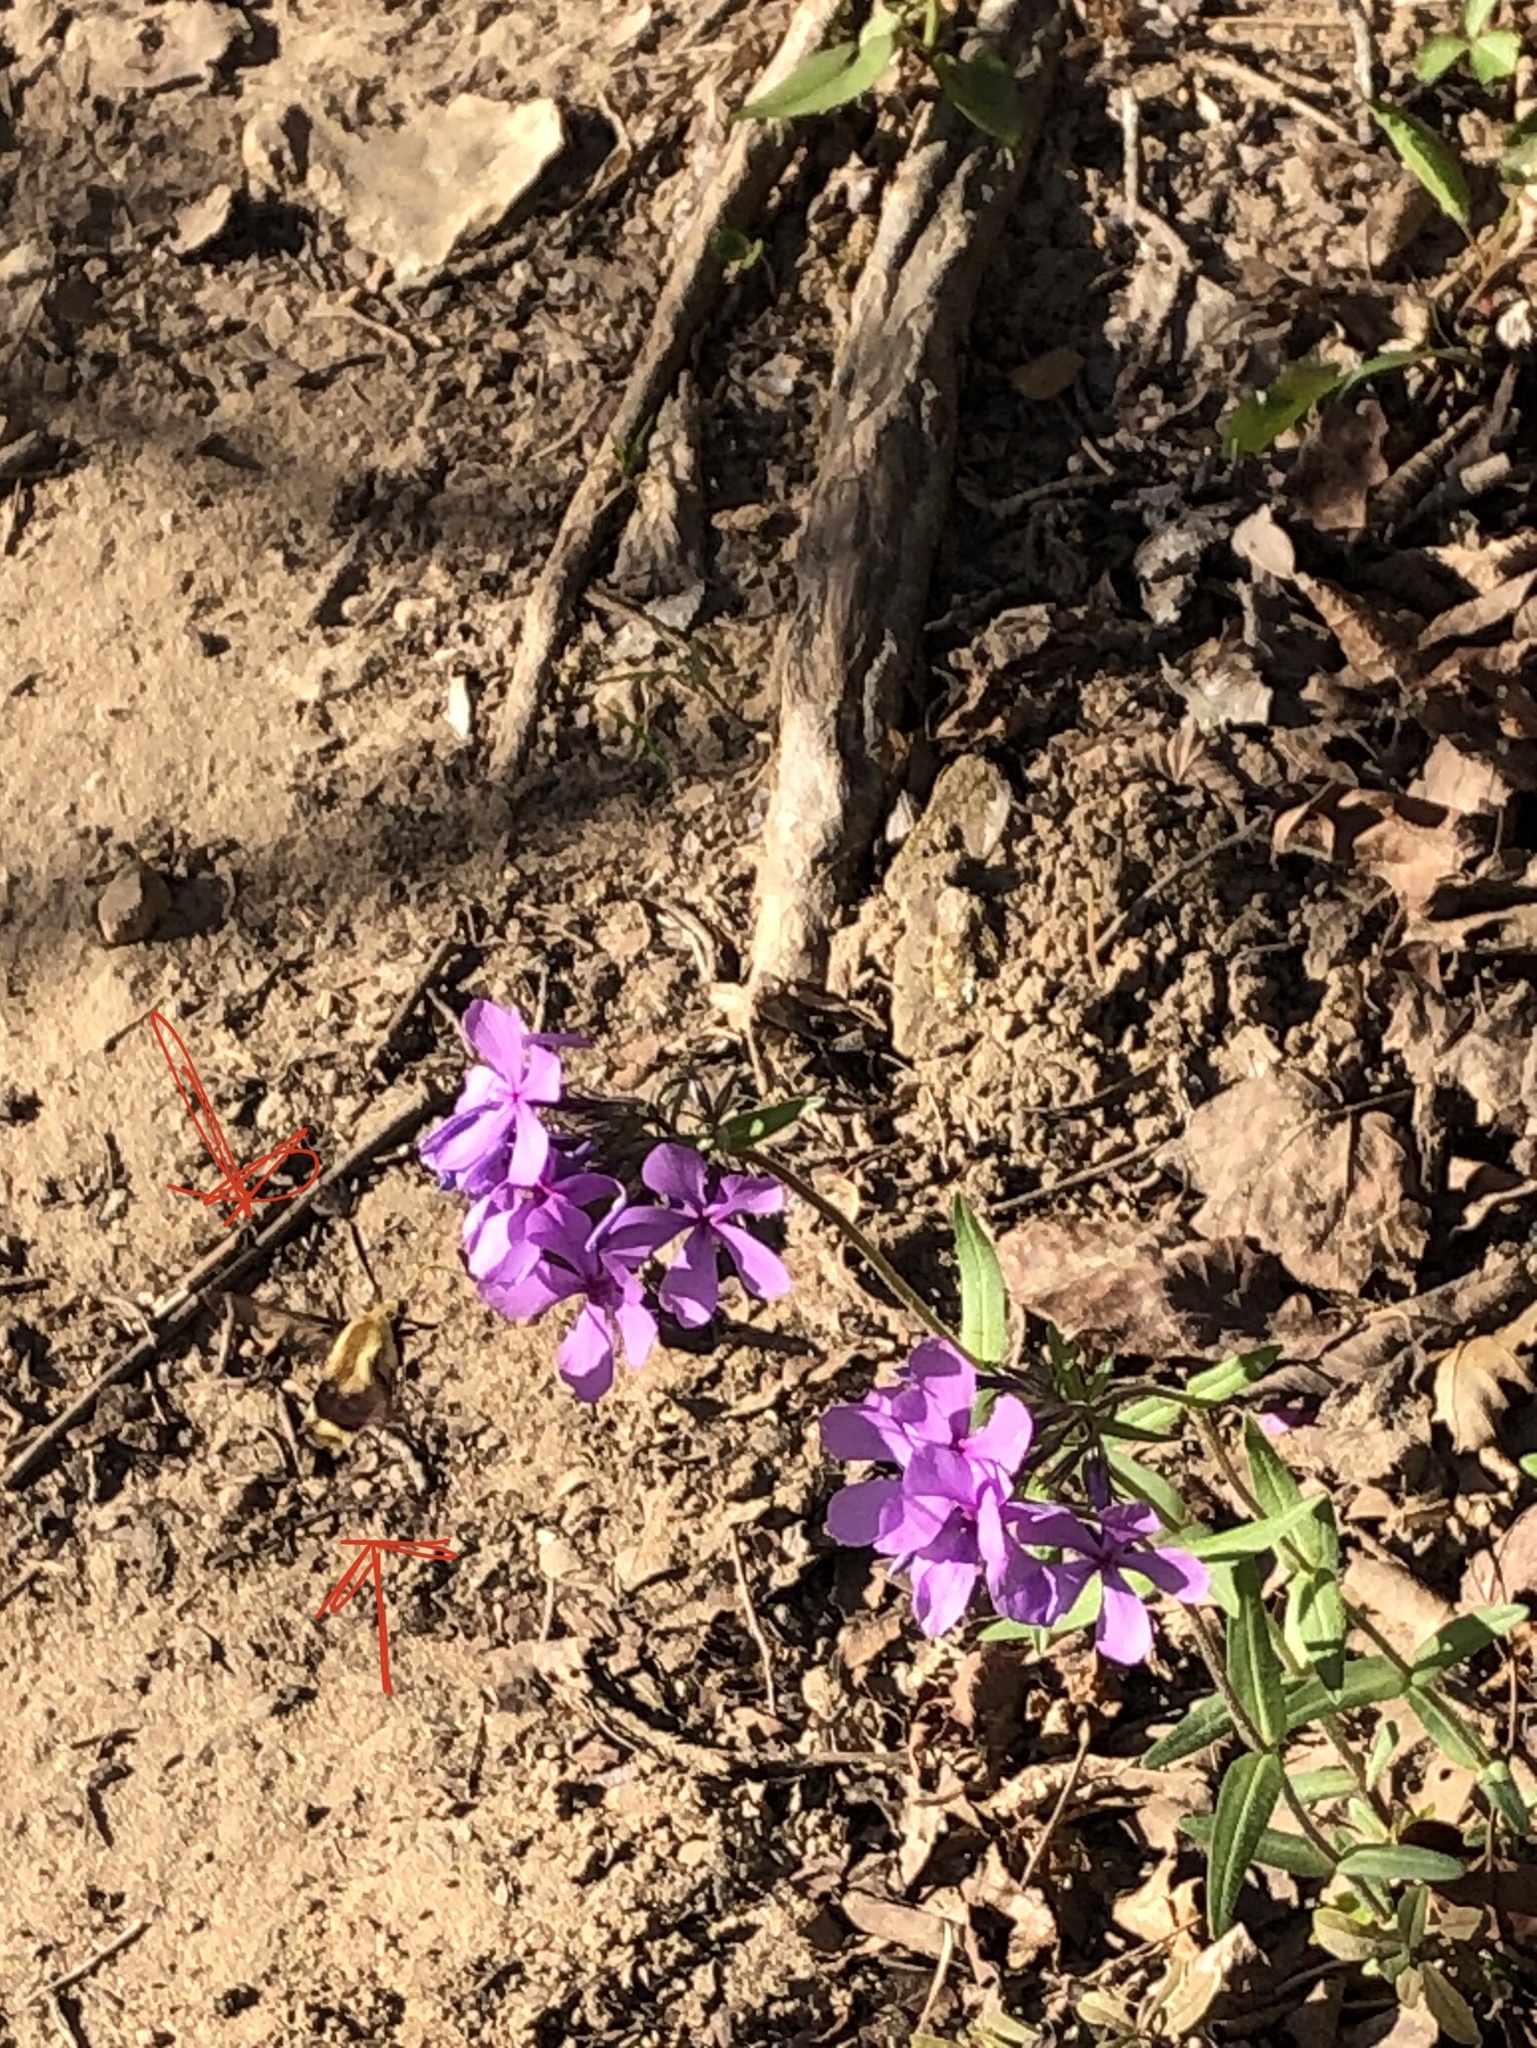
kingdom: Animalia
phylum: Arthropoda
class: Insecta
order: Lepidoptera
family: Sphingidae
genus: Hemaris
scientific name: Hemaris diffinis
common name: Bumblebee moth
